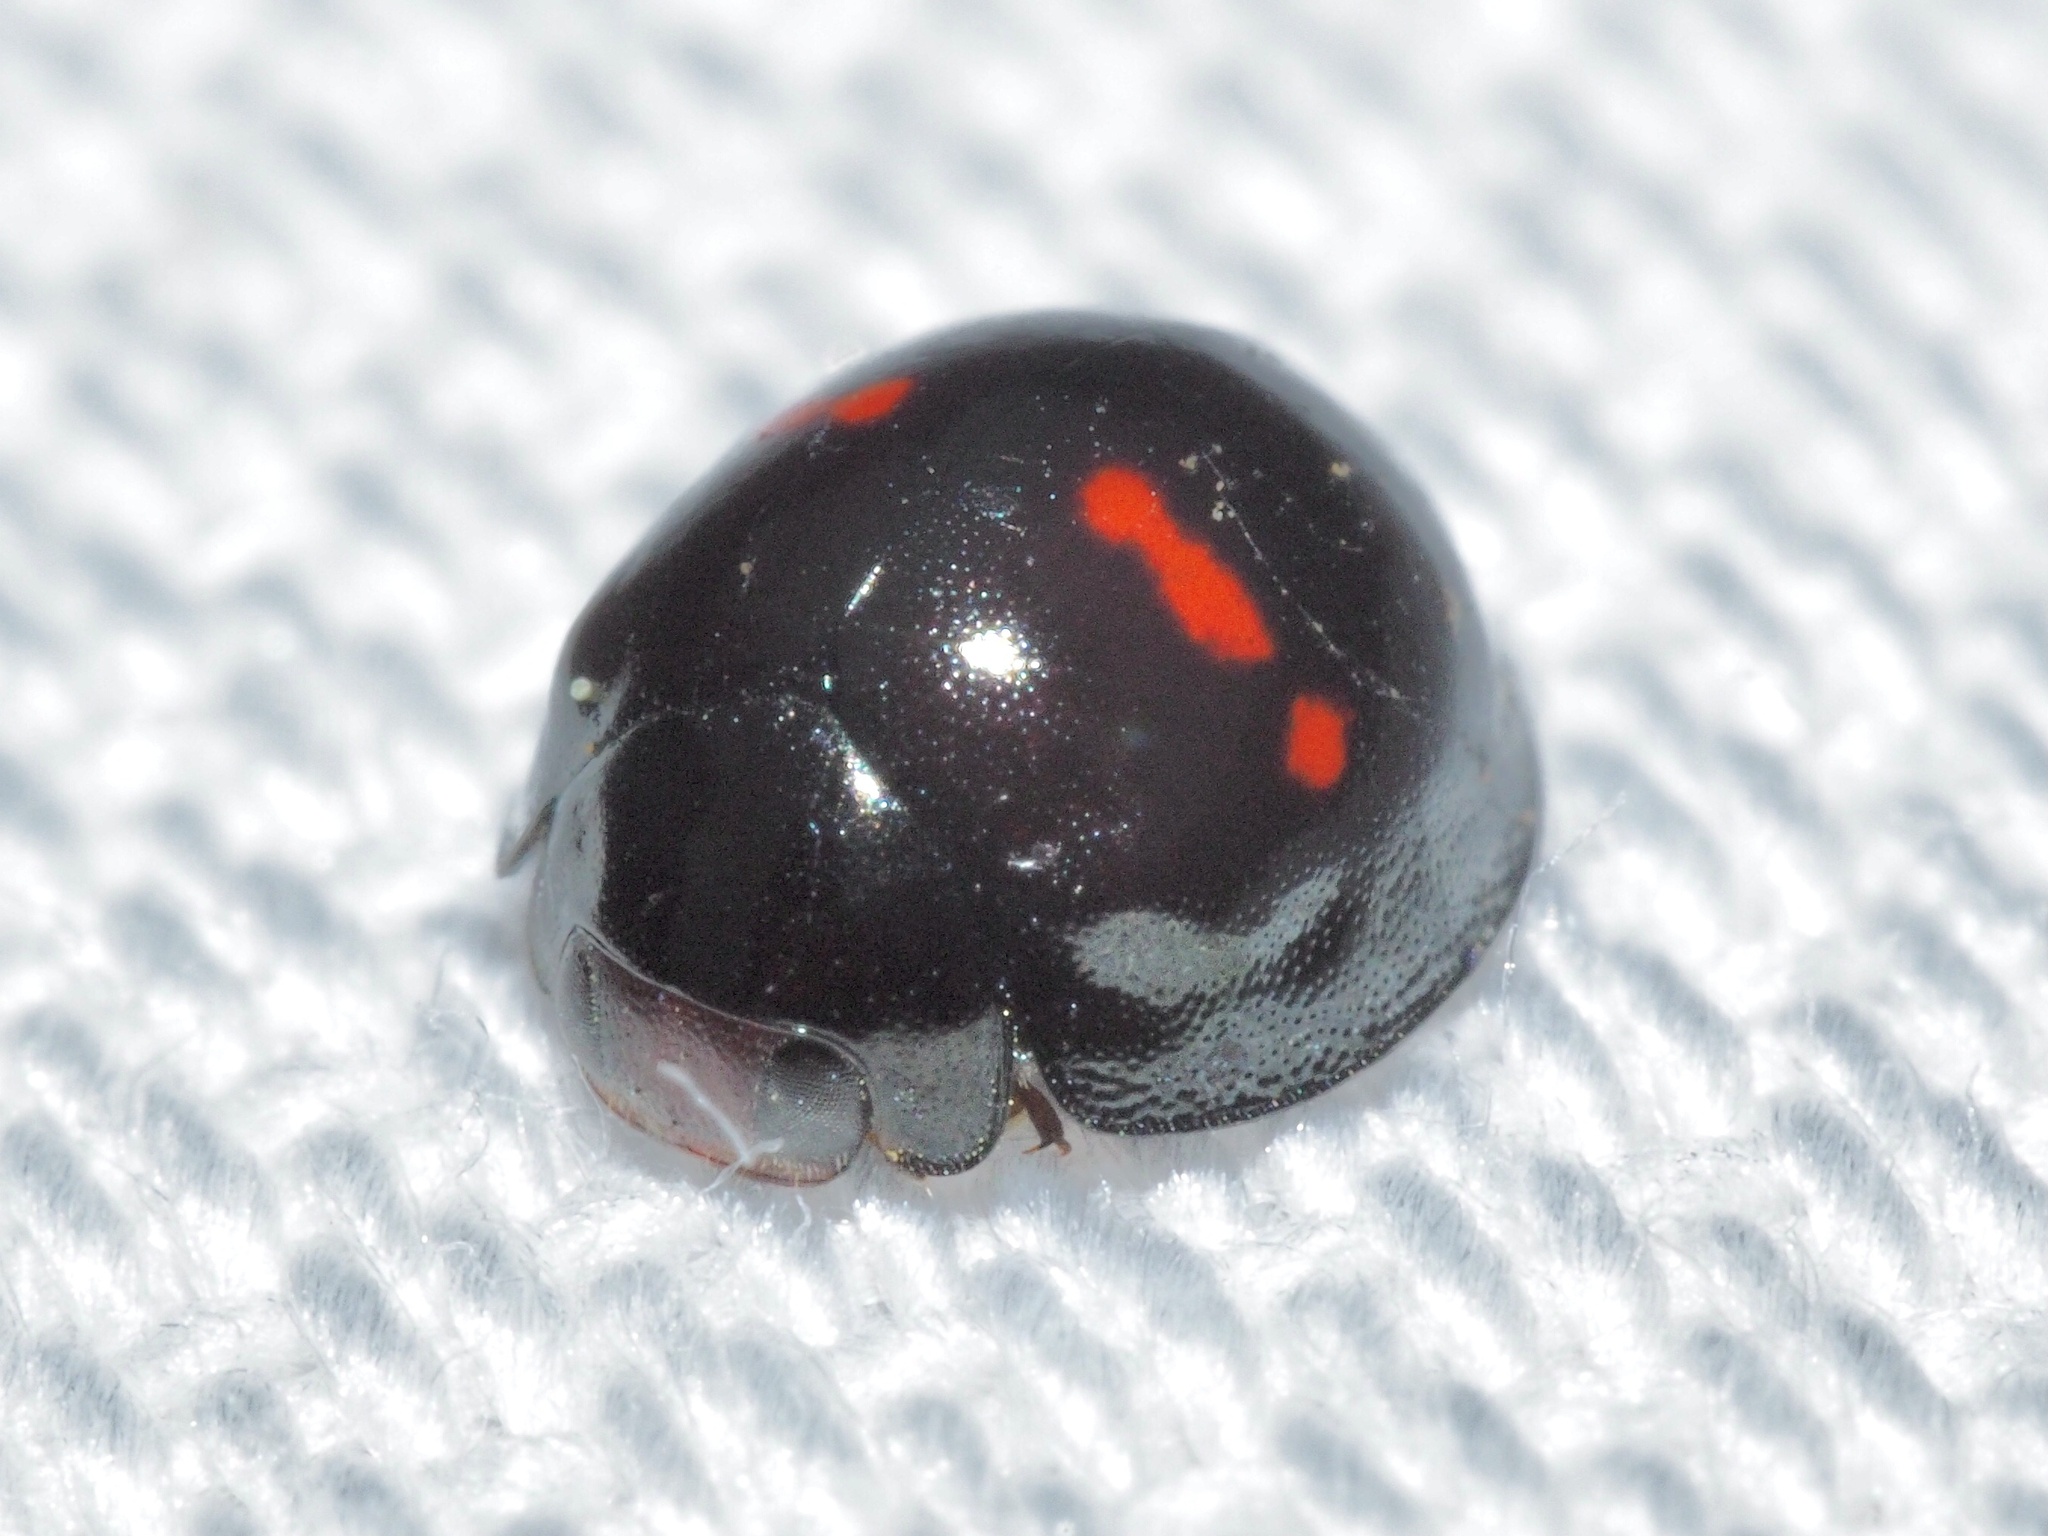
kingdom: Animalia
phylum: Arthropoda
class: Insecta
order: Coleoptera
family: Coccinellidae
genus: Chilocorus
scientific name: Chilocorus bipustulatus
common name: Heather ladybird
